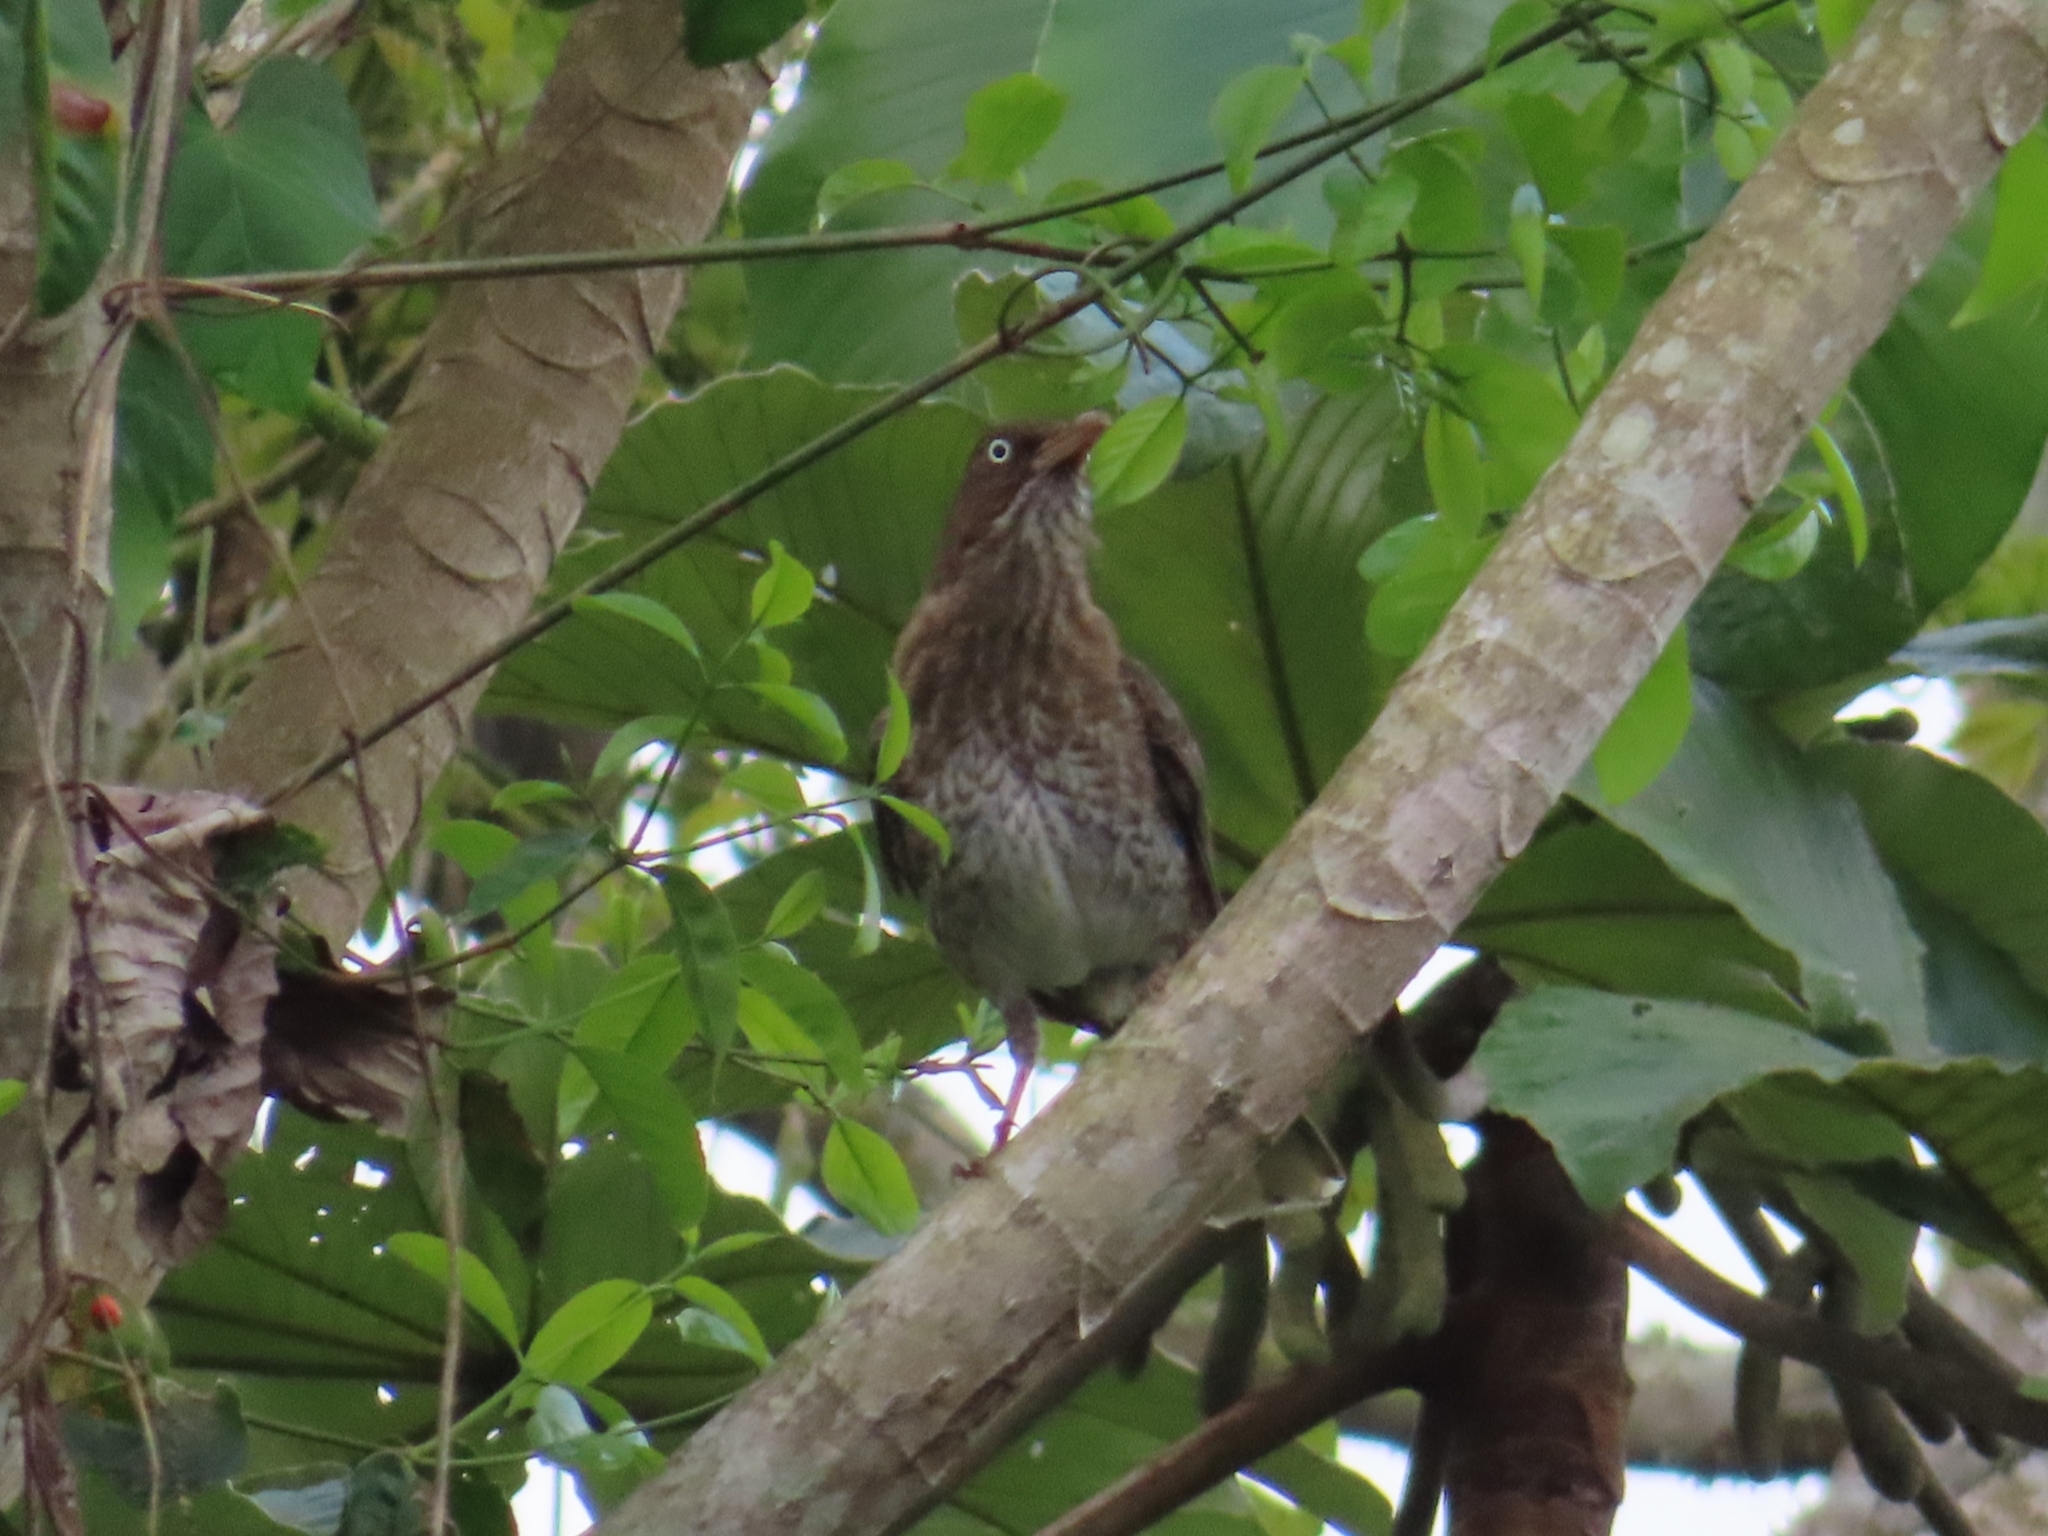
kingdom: Animalia
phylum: Chordata
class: Aves
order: Passeriformes
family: Mimidae
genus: Margarops
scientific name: Margarops fuscatus
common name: Pearly-eyed thrasher
